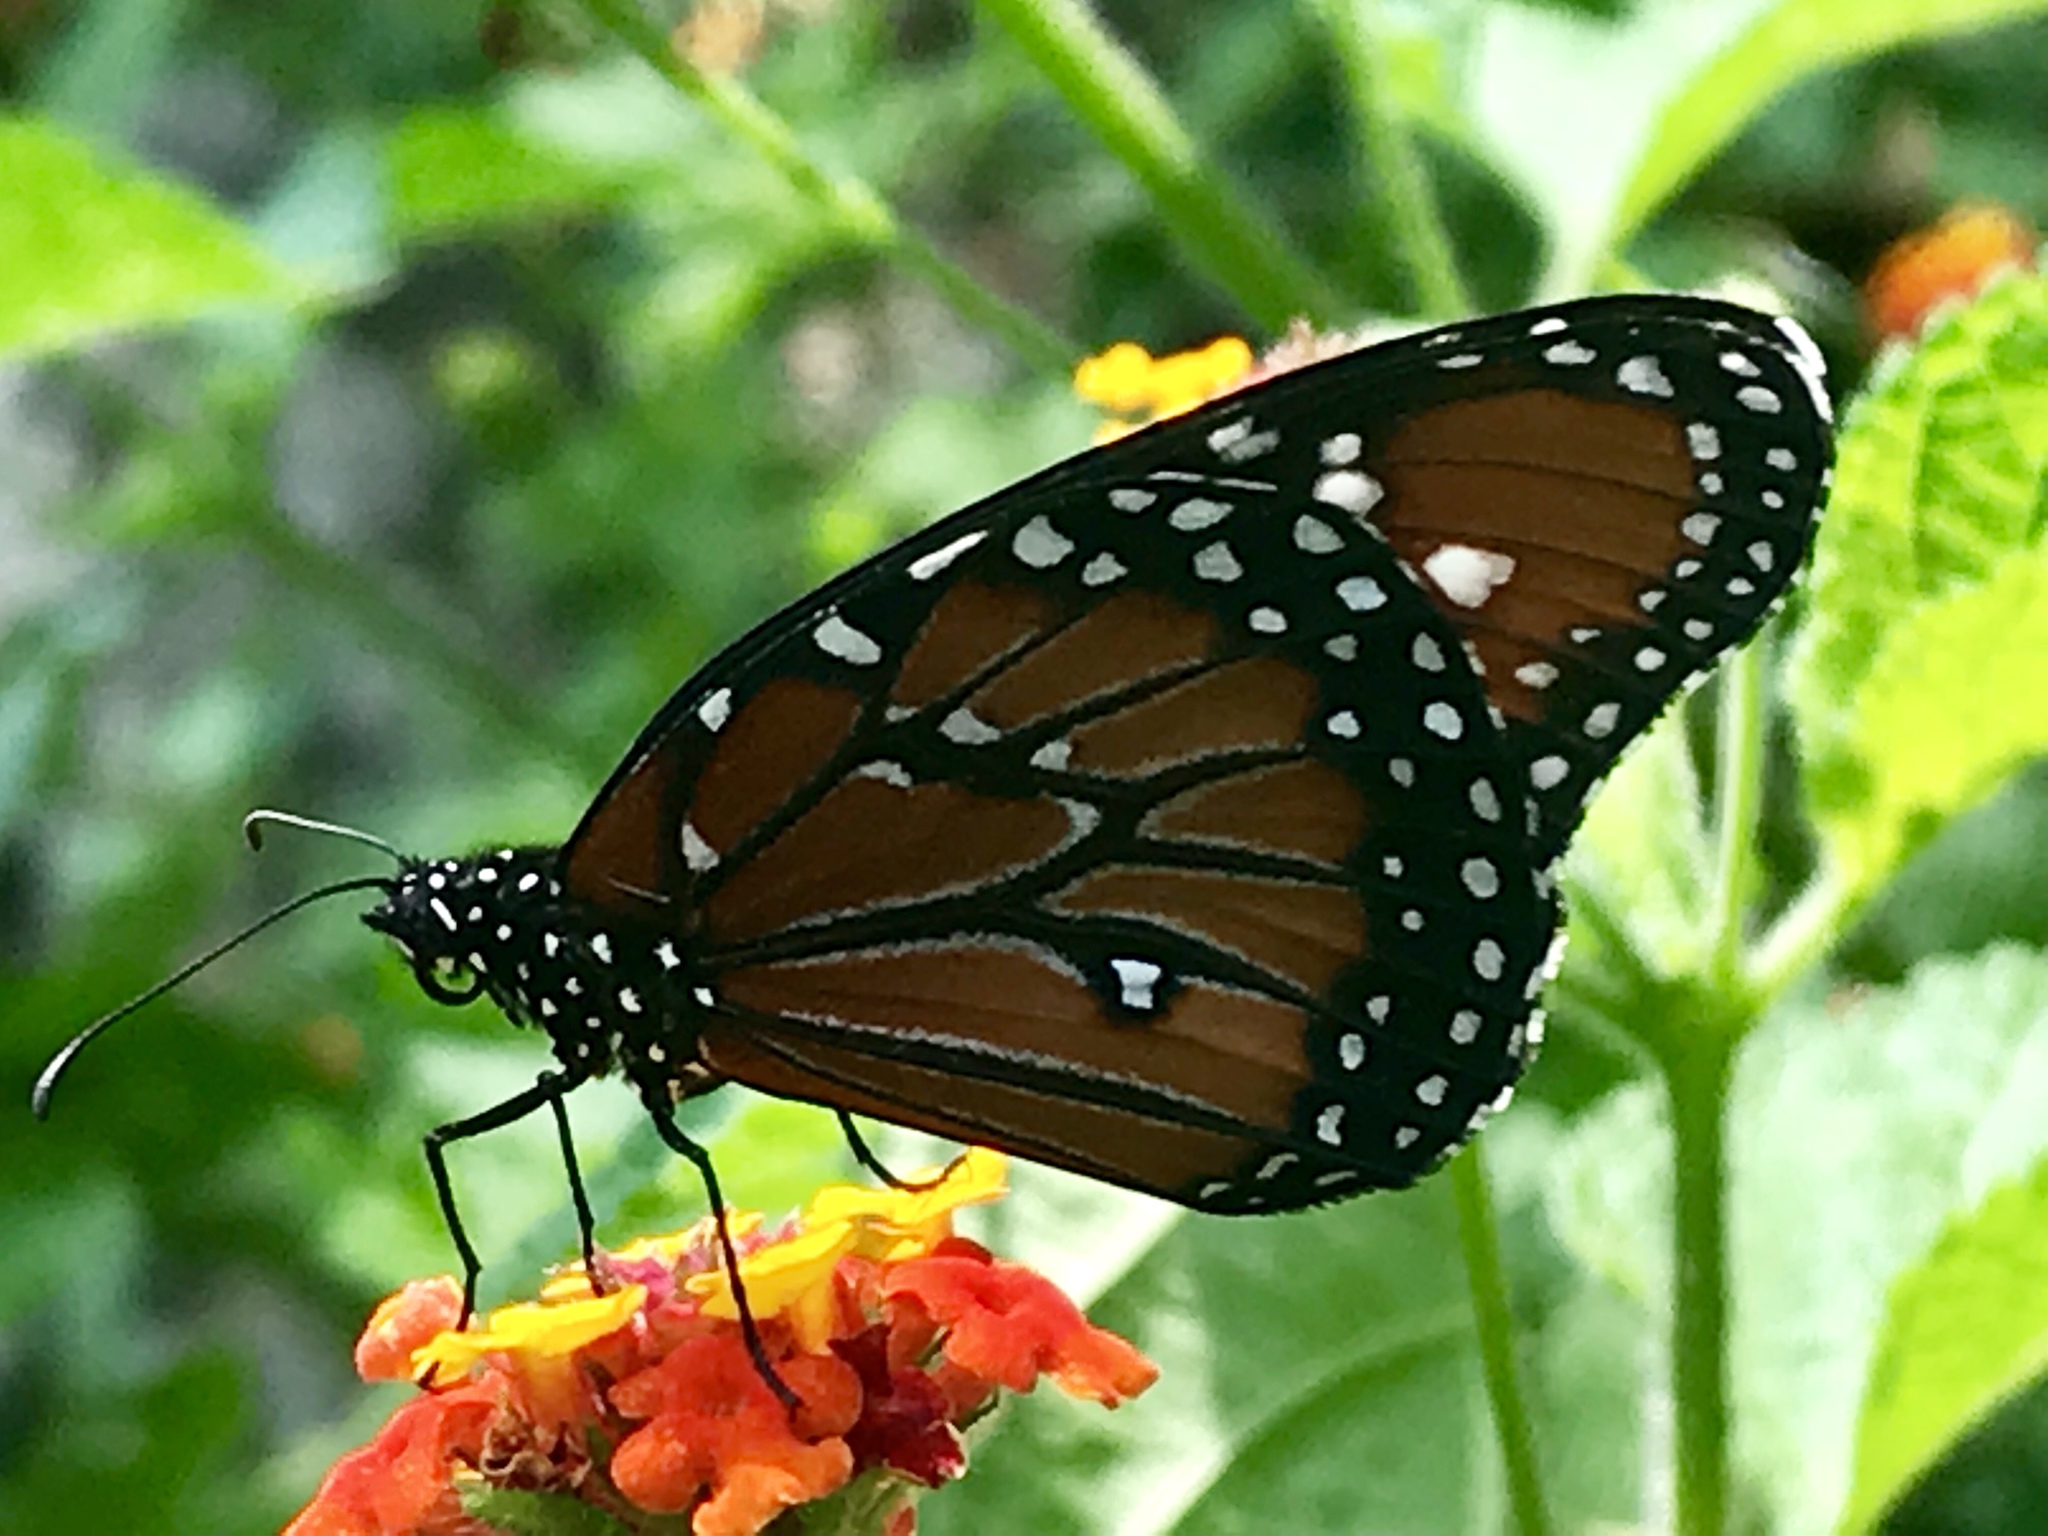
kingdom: Animalia
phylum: Arthropoda
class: Insecta
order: Lepidoptera
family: Nymphalidae
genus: Danaus
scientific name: Danaus gilippus
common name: Queen
